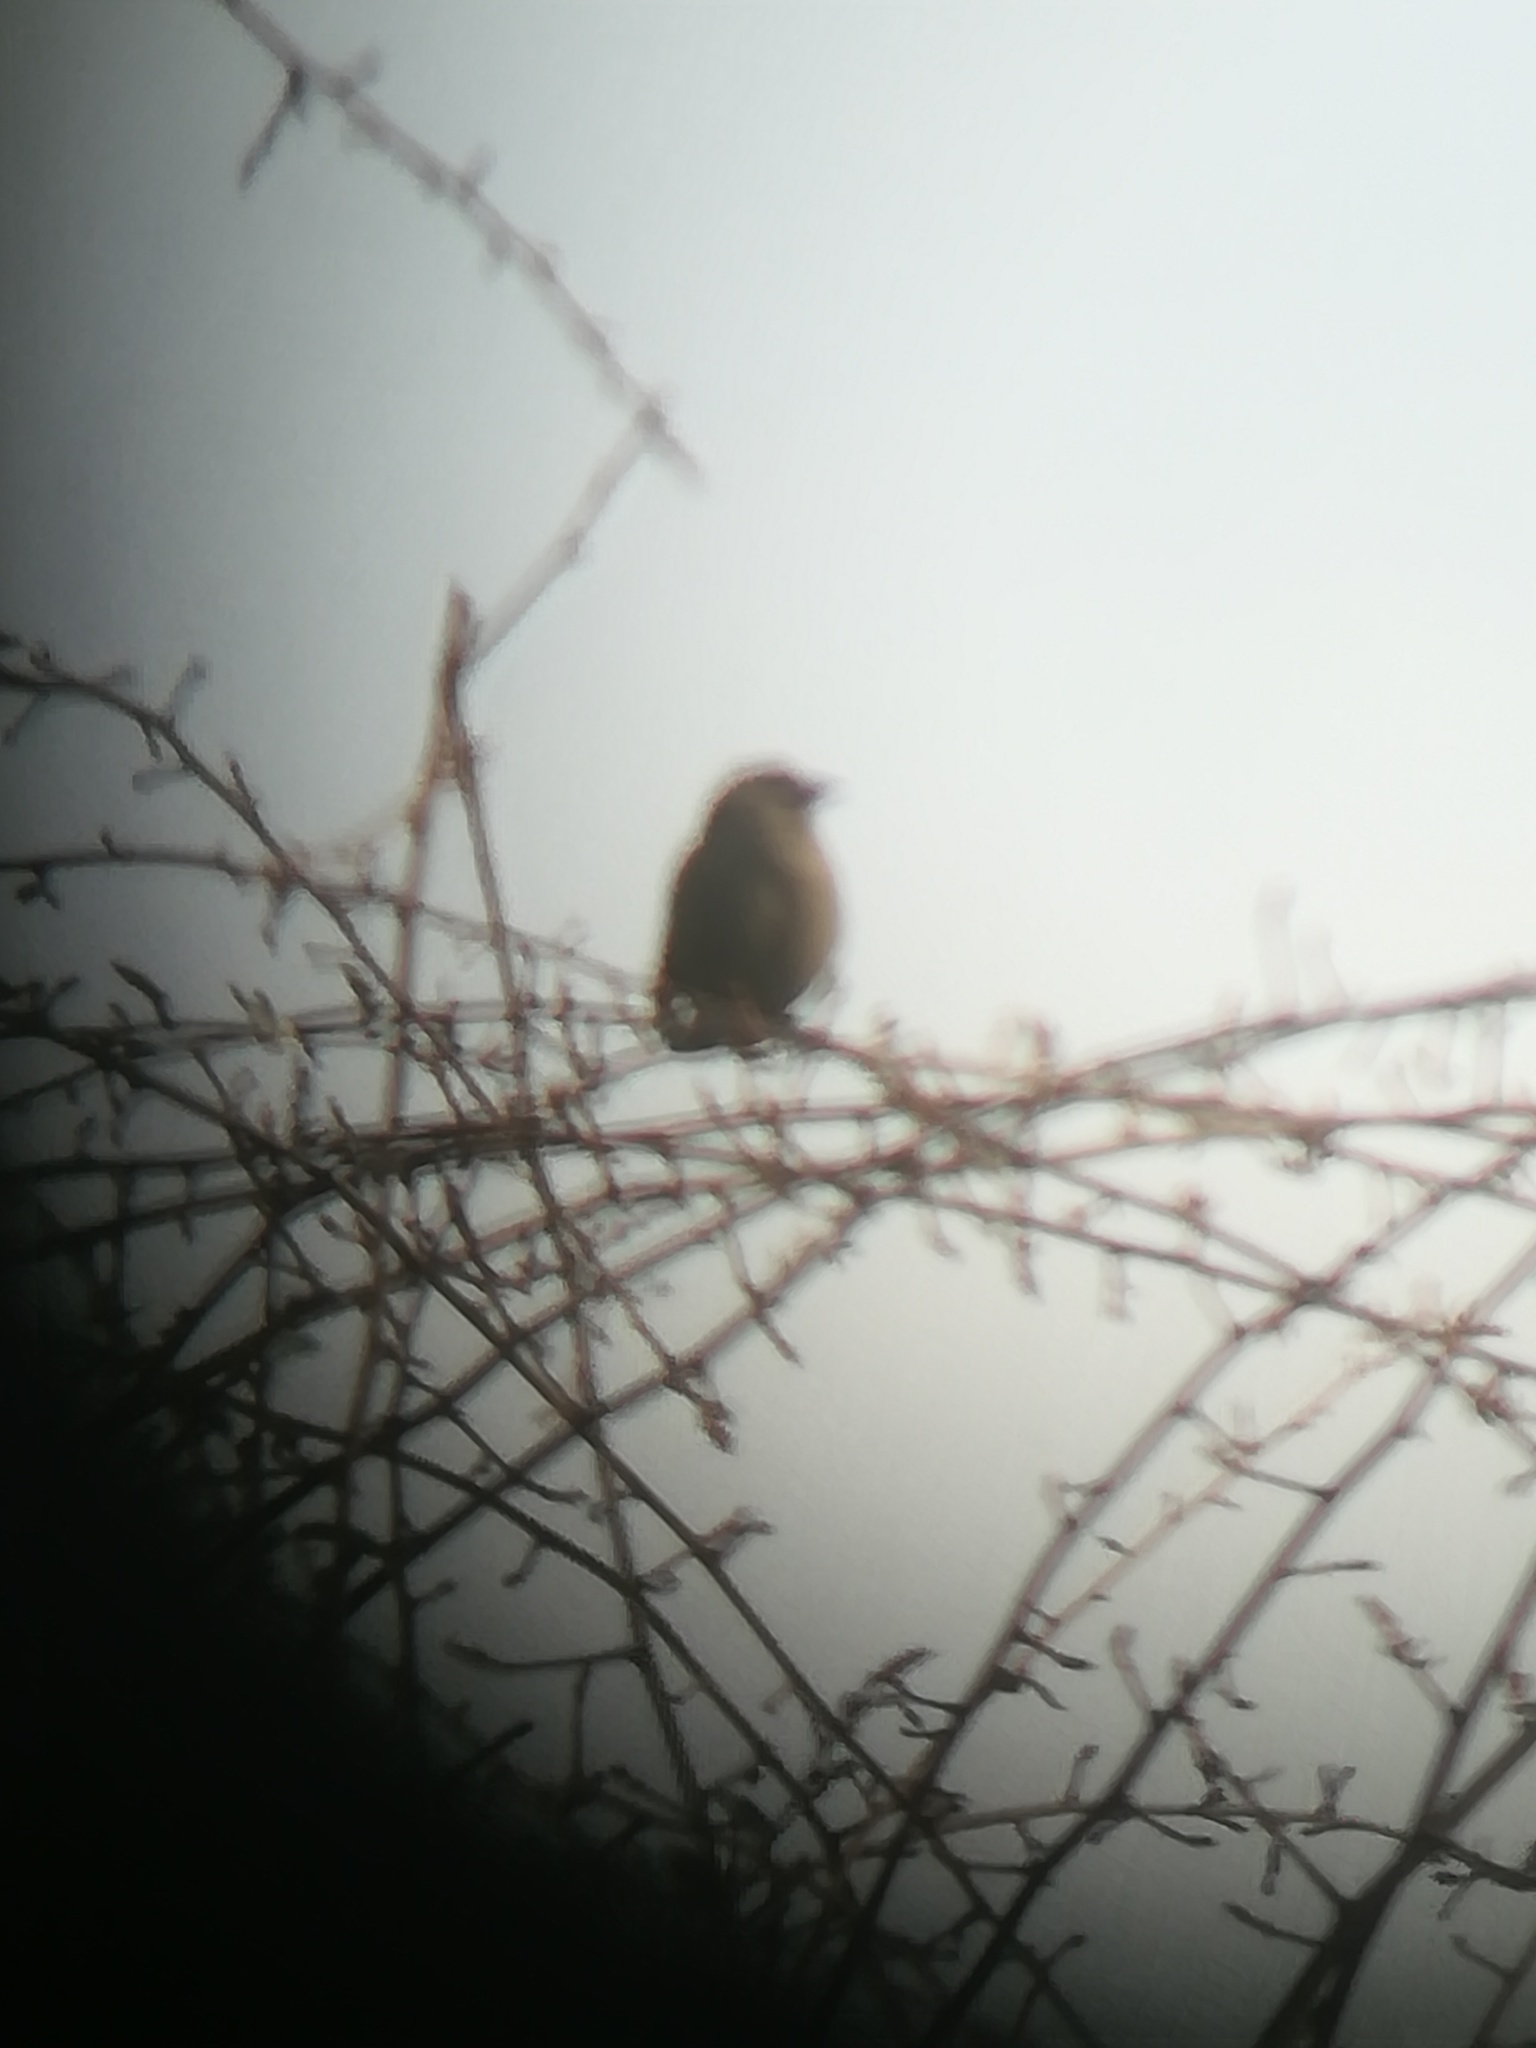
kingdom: Animalia
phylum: Chordata
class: Aves
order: Passeriformes
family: Icteridae
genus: Agelaioides
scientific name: Agelaioides badius
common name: Baywing
